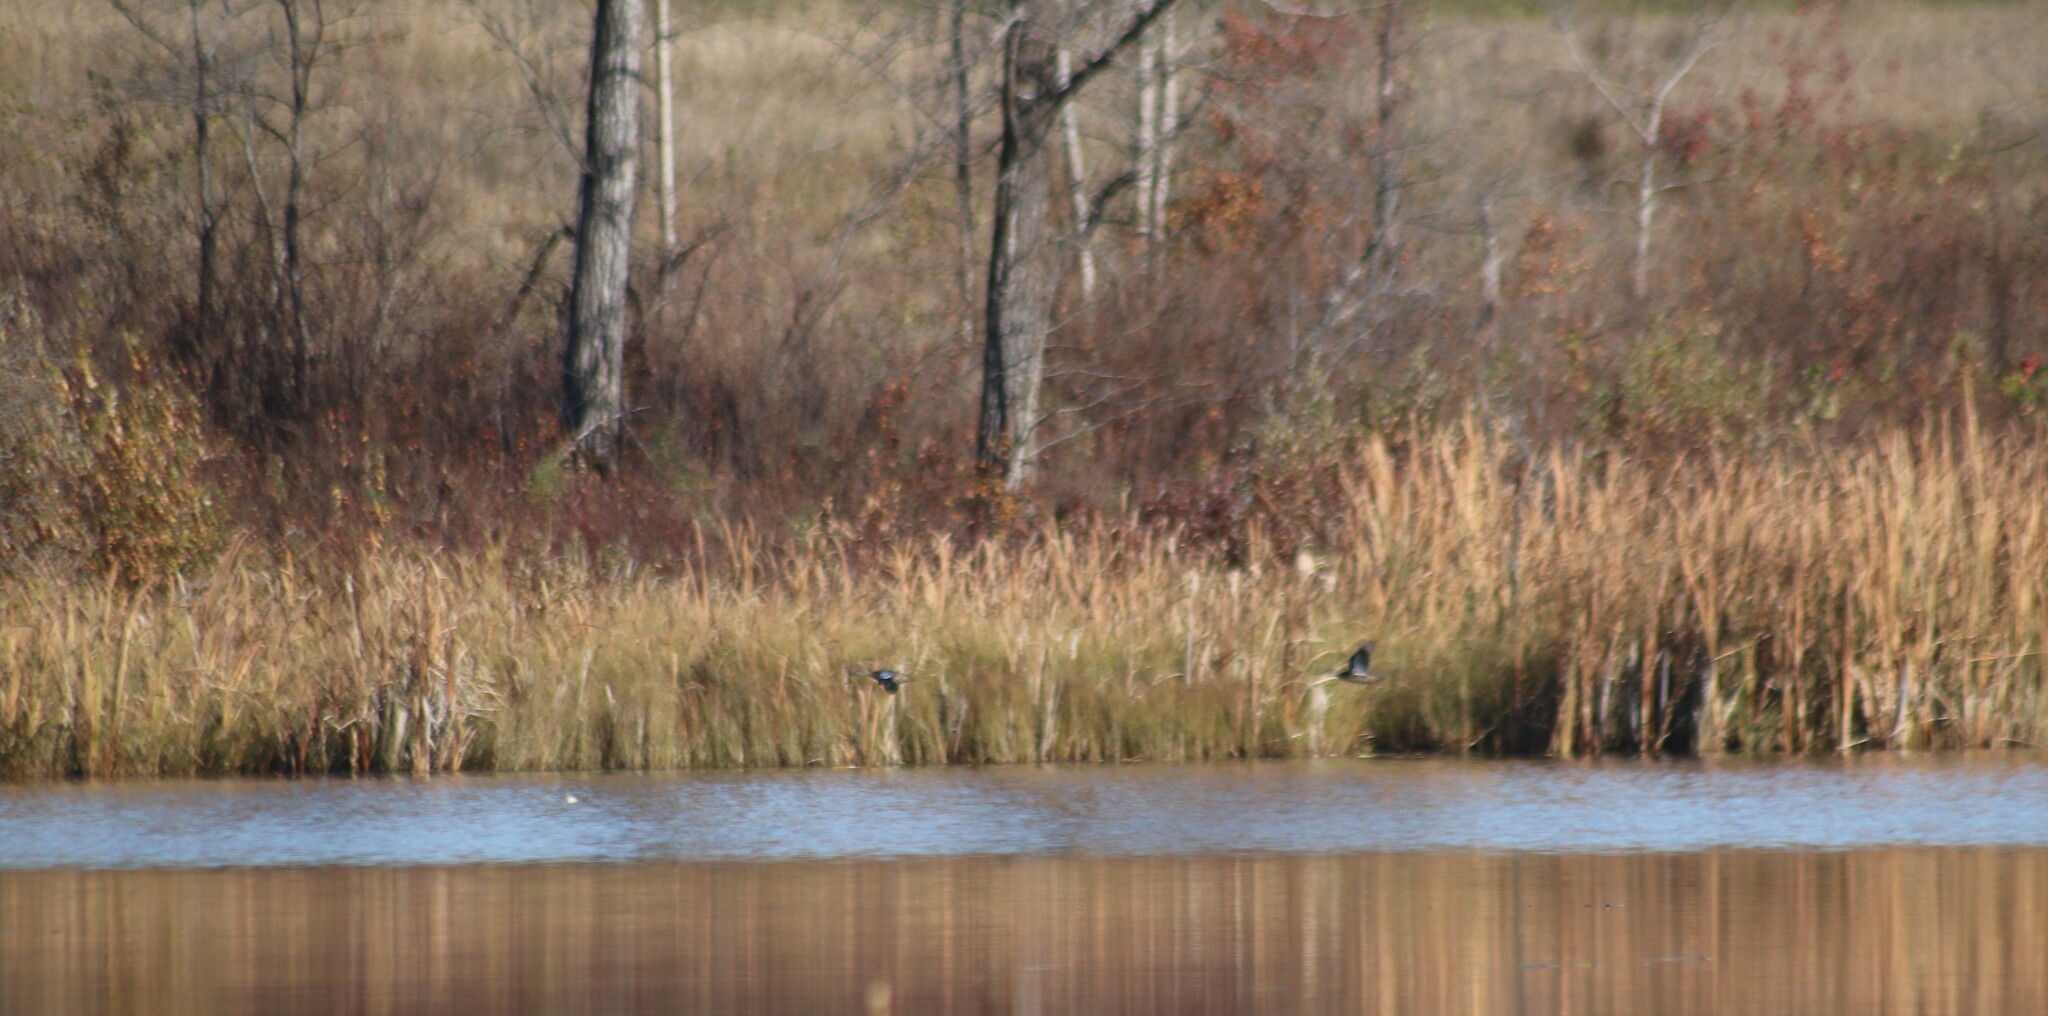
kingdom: Animalia
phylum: Chordata
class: Aves
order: Anseriformes
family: Anatidae
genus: Spatula
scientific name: Spatula discors
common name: Blue-winged teal
